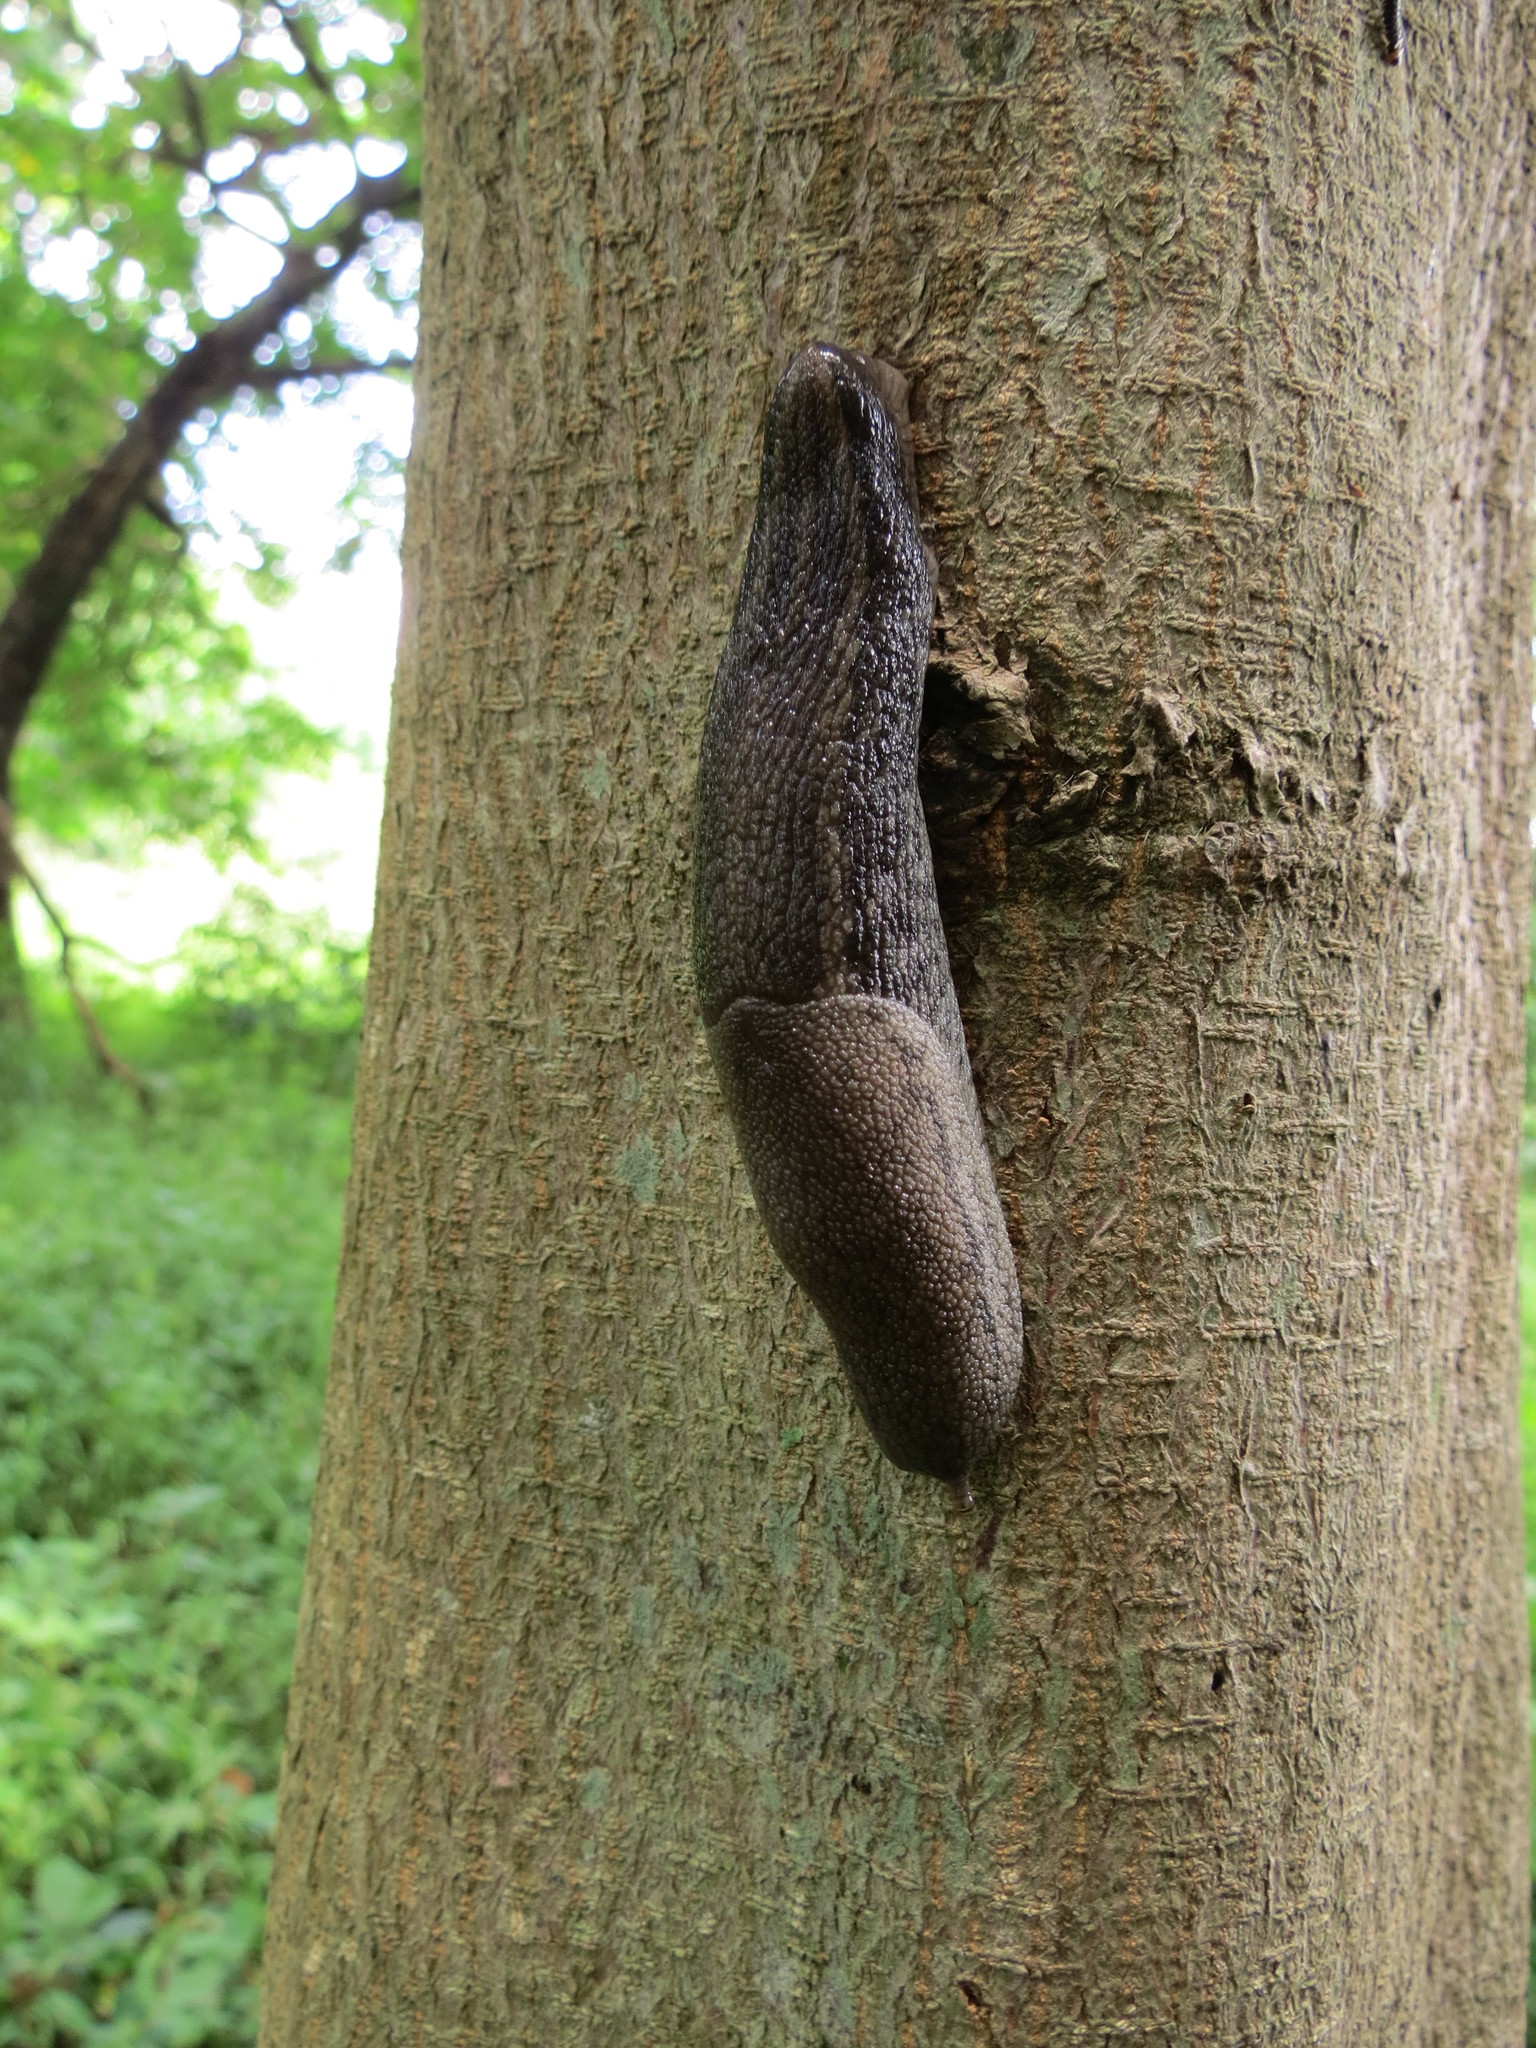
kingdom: Animalia
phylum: Mollusca
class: Gastropoda
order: Stylommatophora
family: Urocyclidae
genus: Urocyclus
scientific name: Urocyclus kirkii
